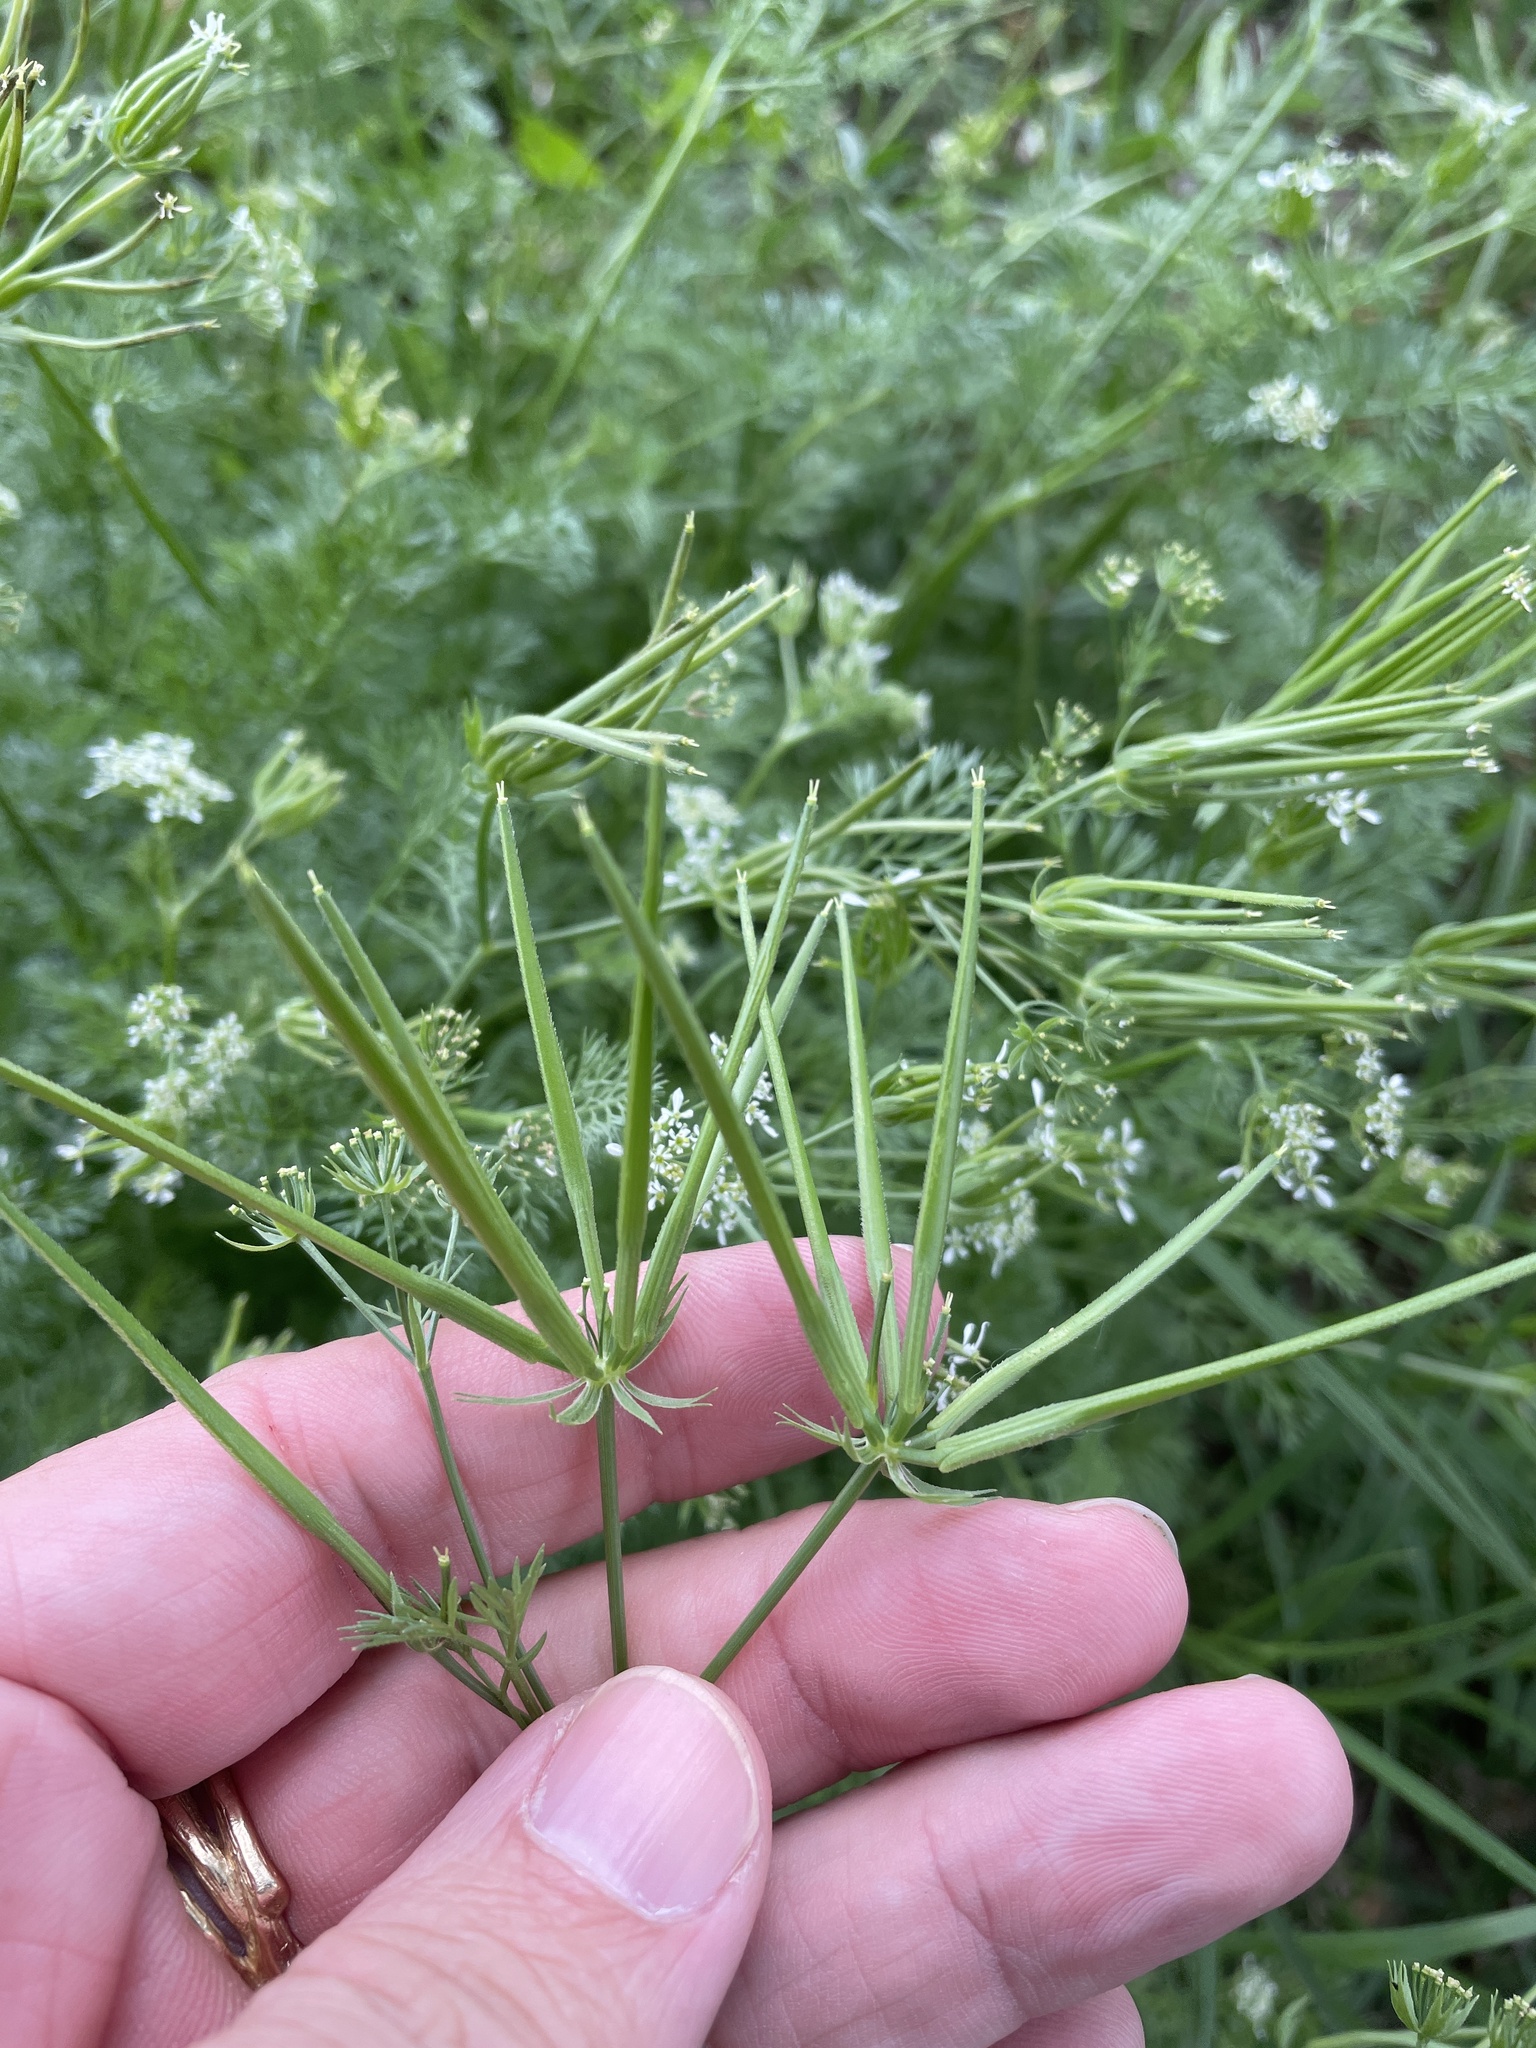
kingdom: Plantae
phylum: Tracheophyta
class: Magnoliopsida
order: Apiales
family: Apiaceae
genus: Scandix
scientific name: Scandix pecten-veneris
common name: Shepherd's-needle
